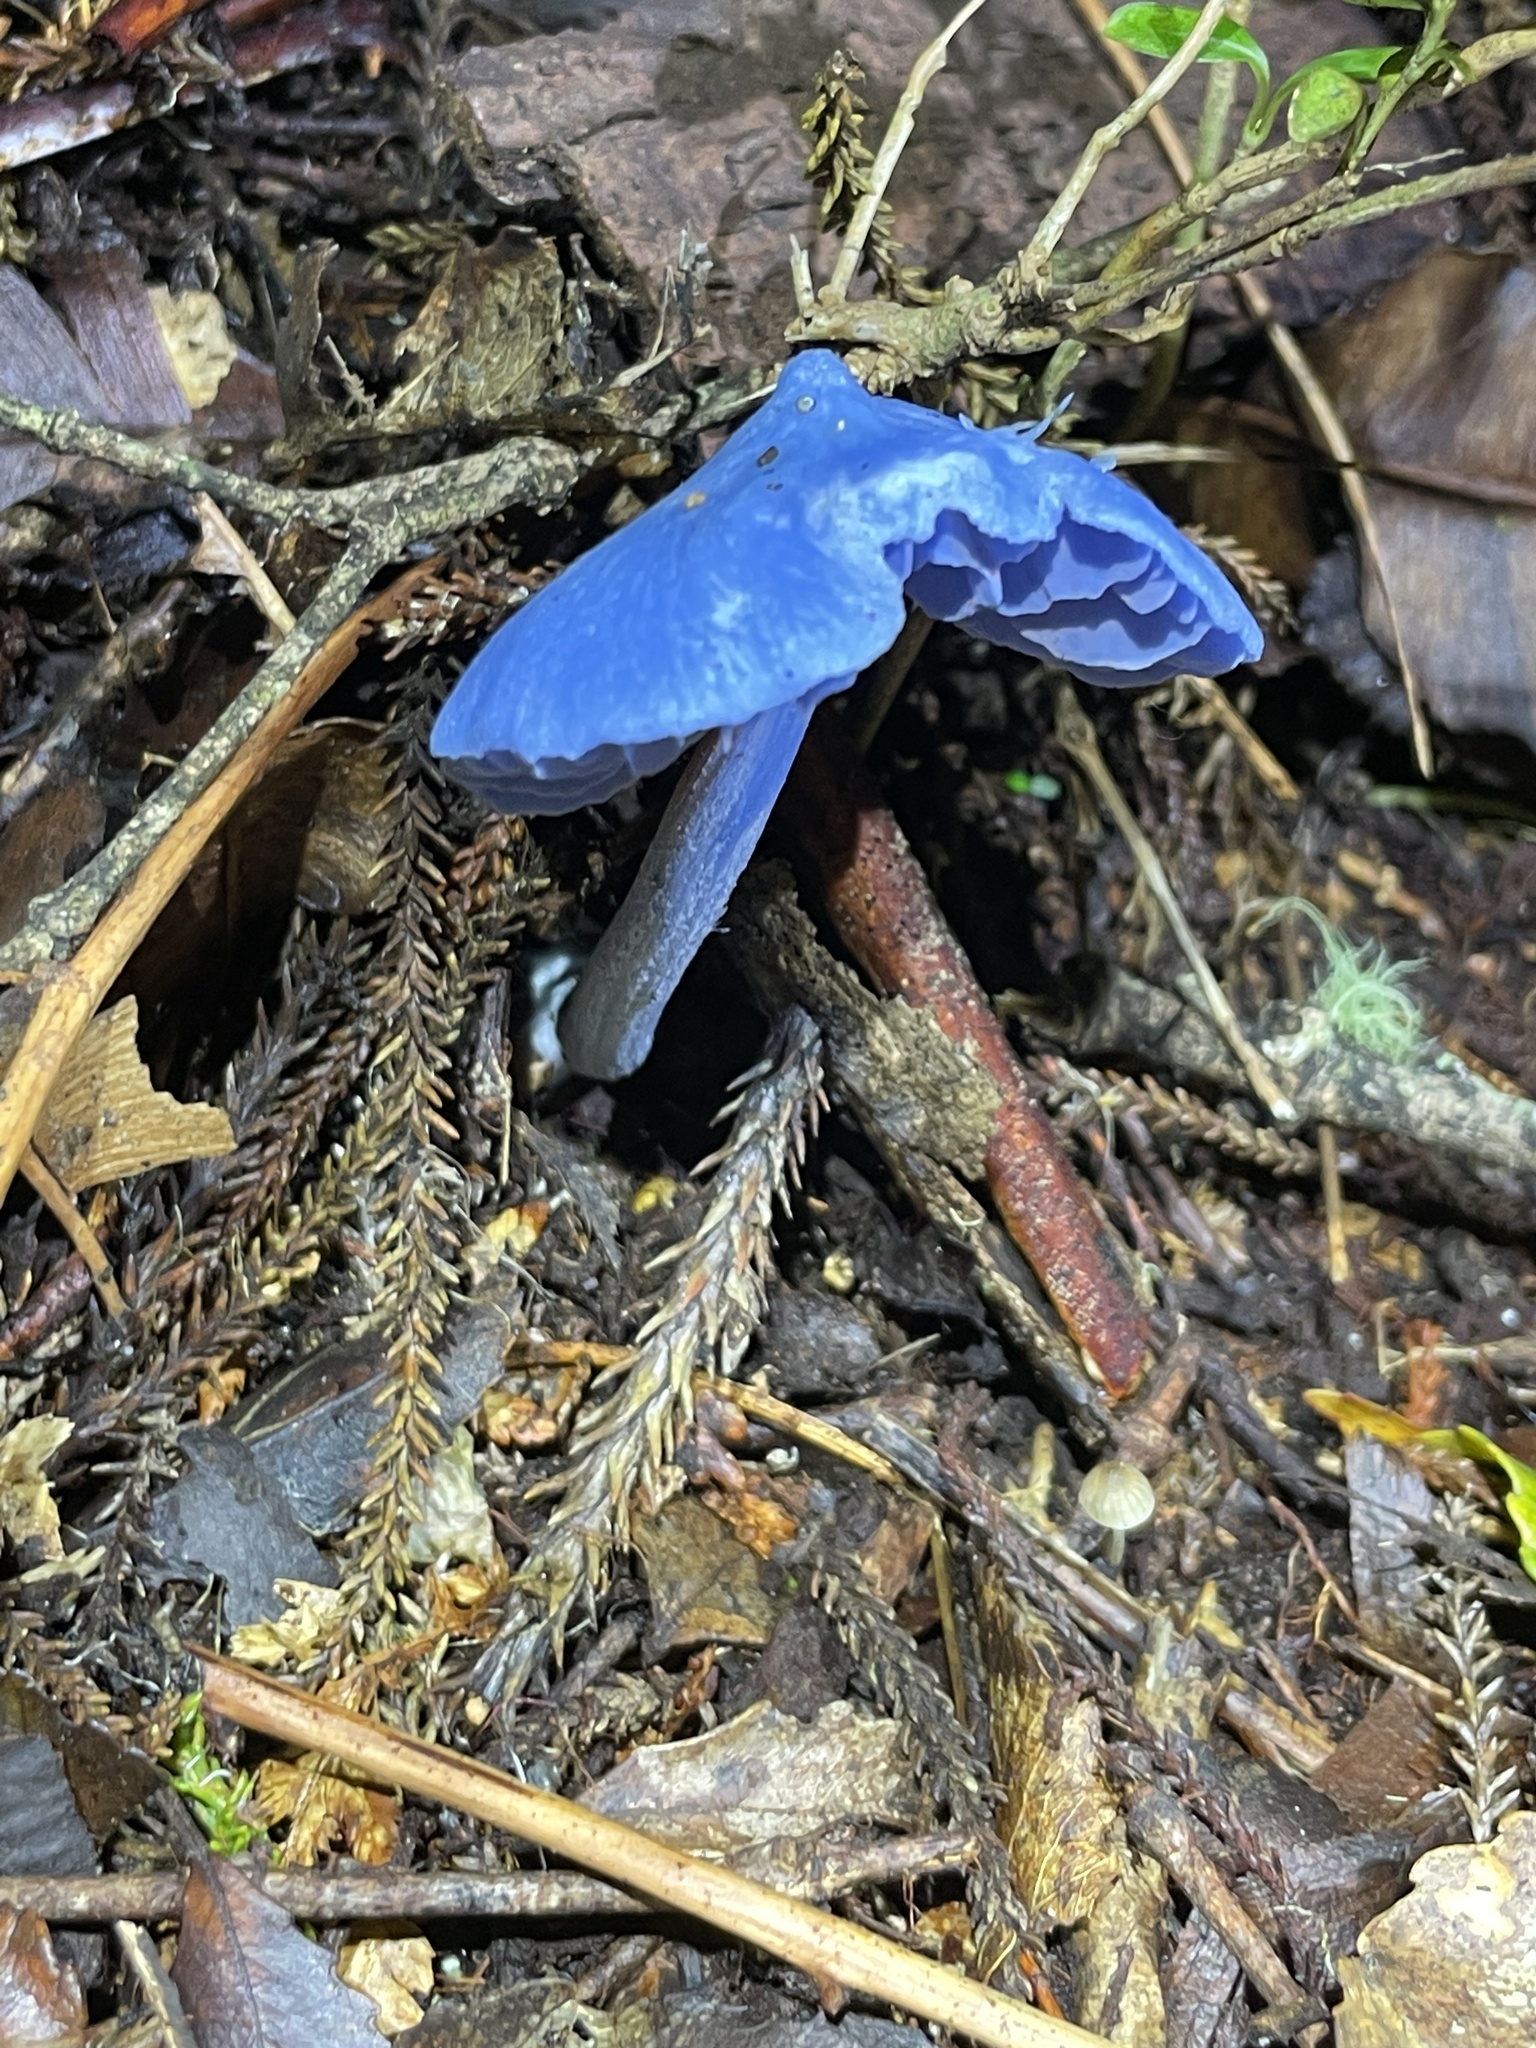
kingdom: Fungi
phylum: Basidiomycota
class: Agaricomycetes
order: Agaricales
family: Entolomataceae
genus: Entoloma
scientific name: Entoloma hochstetteri
